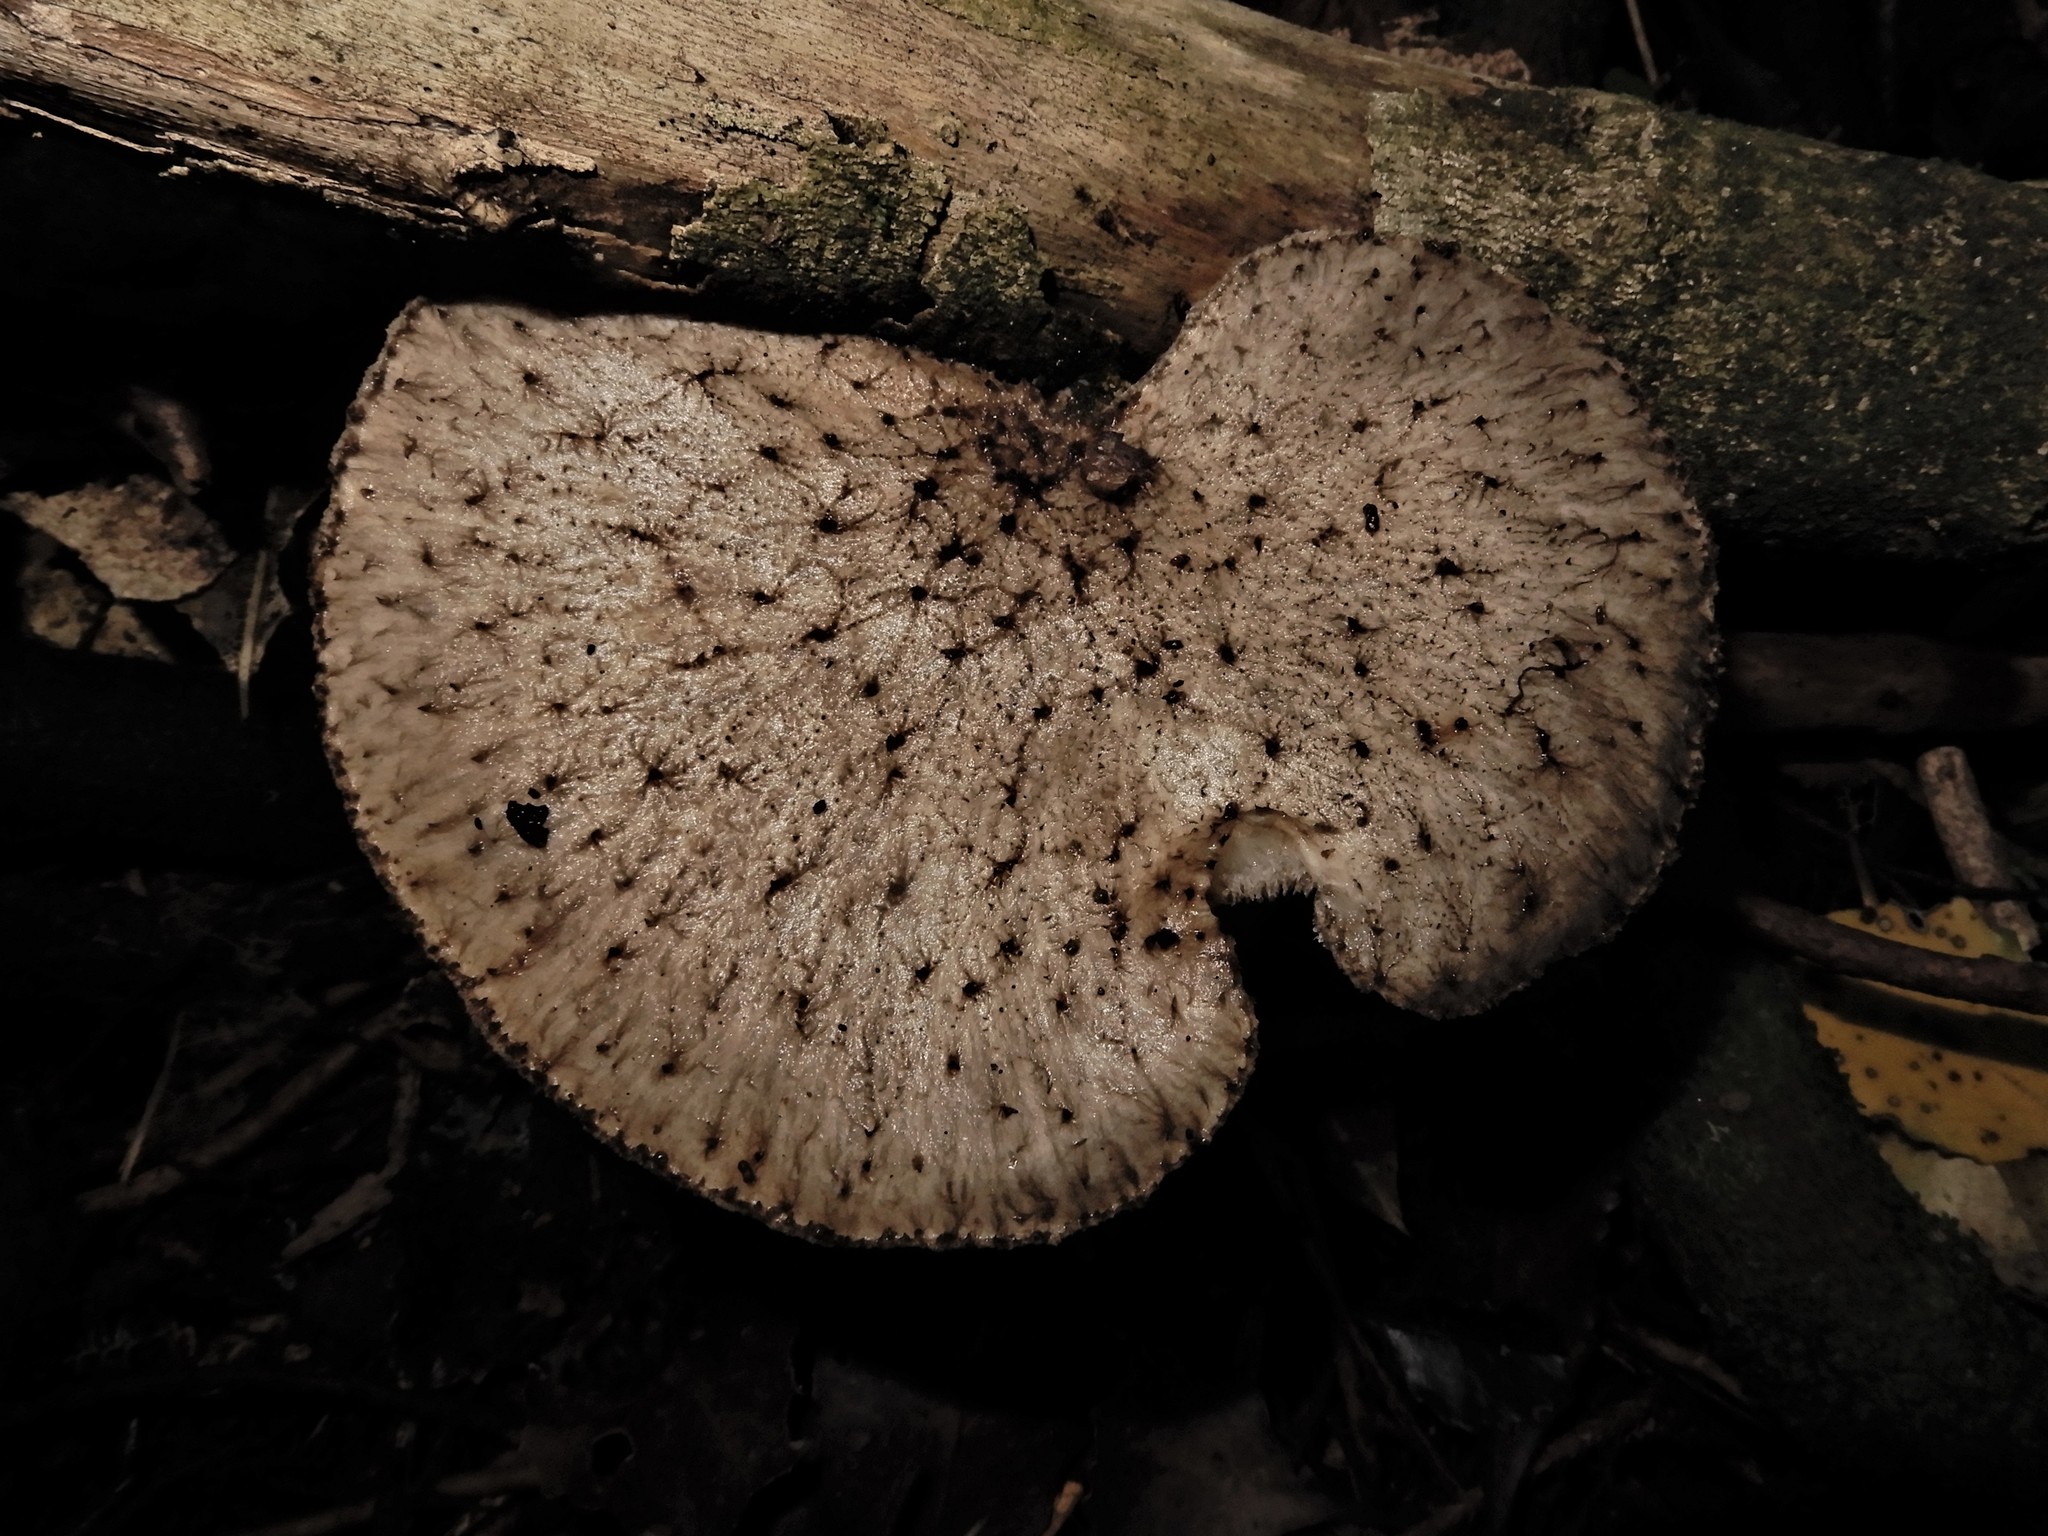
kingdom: Fungi
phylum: Basidiomycota
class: Agaricomycetes
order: Polyporales
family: Polyporaceae
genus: Bresadolia
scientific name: Bresadolia
